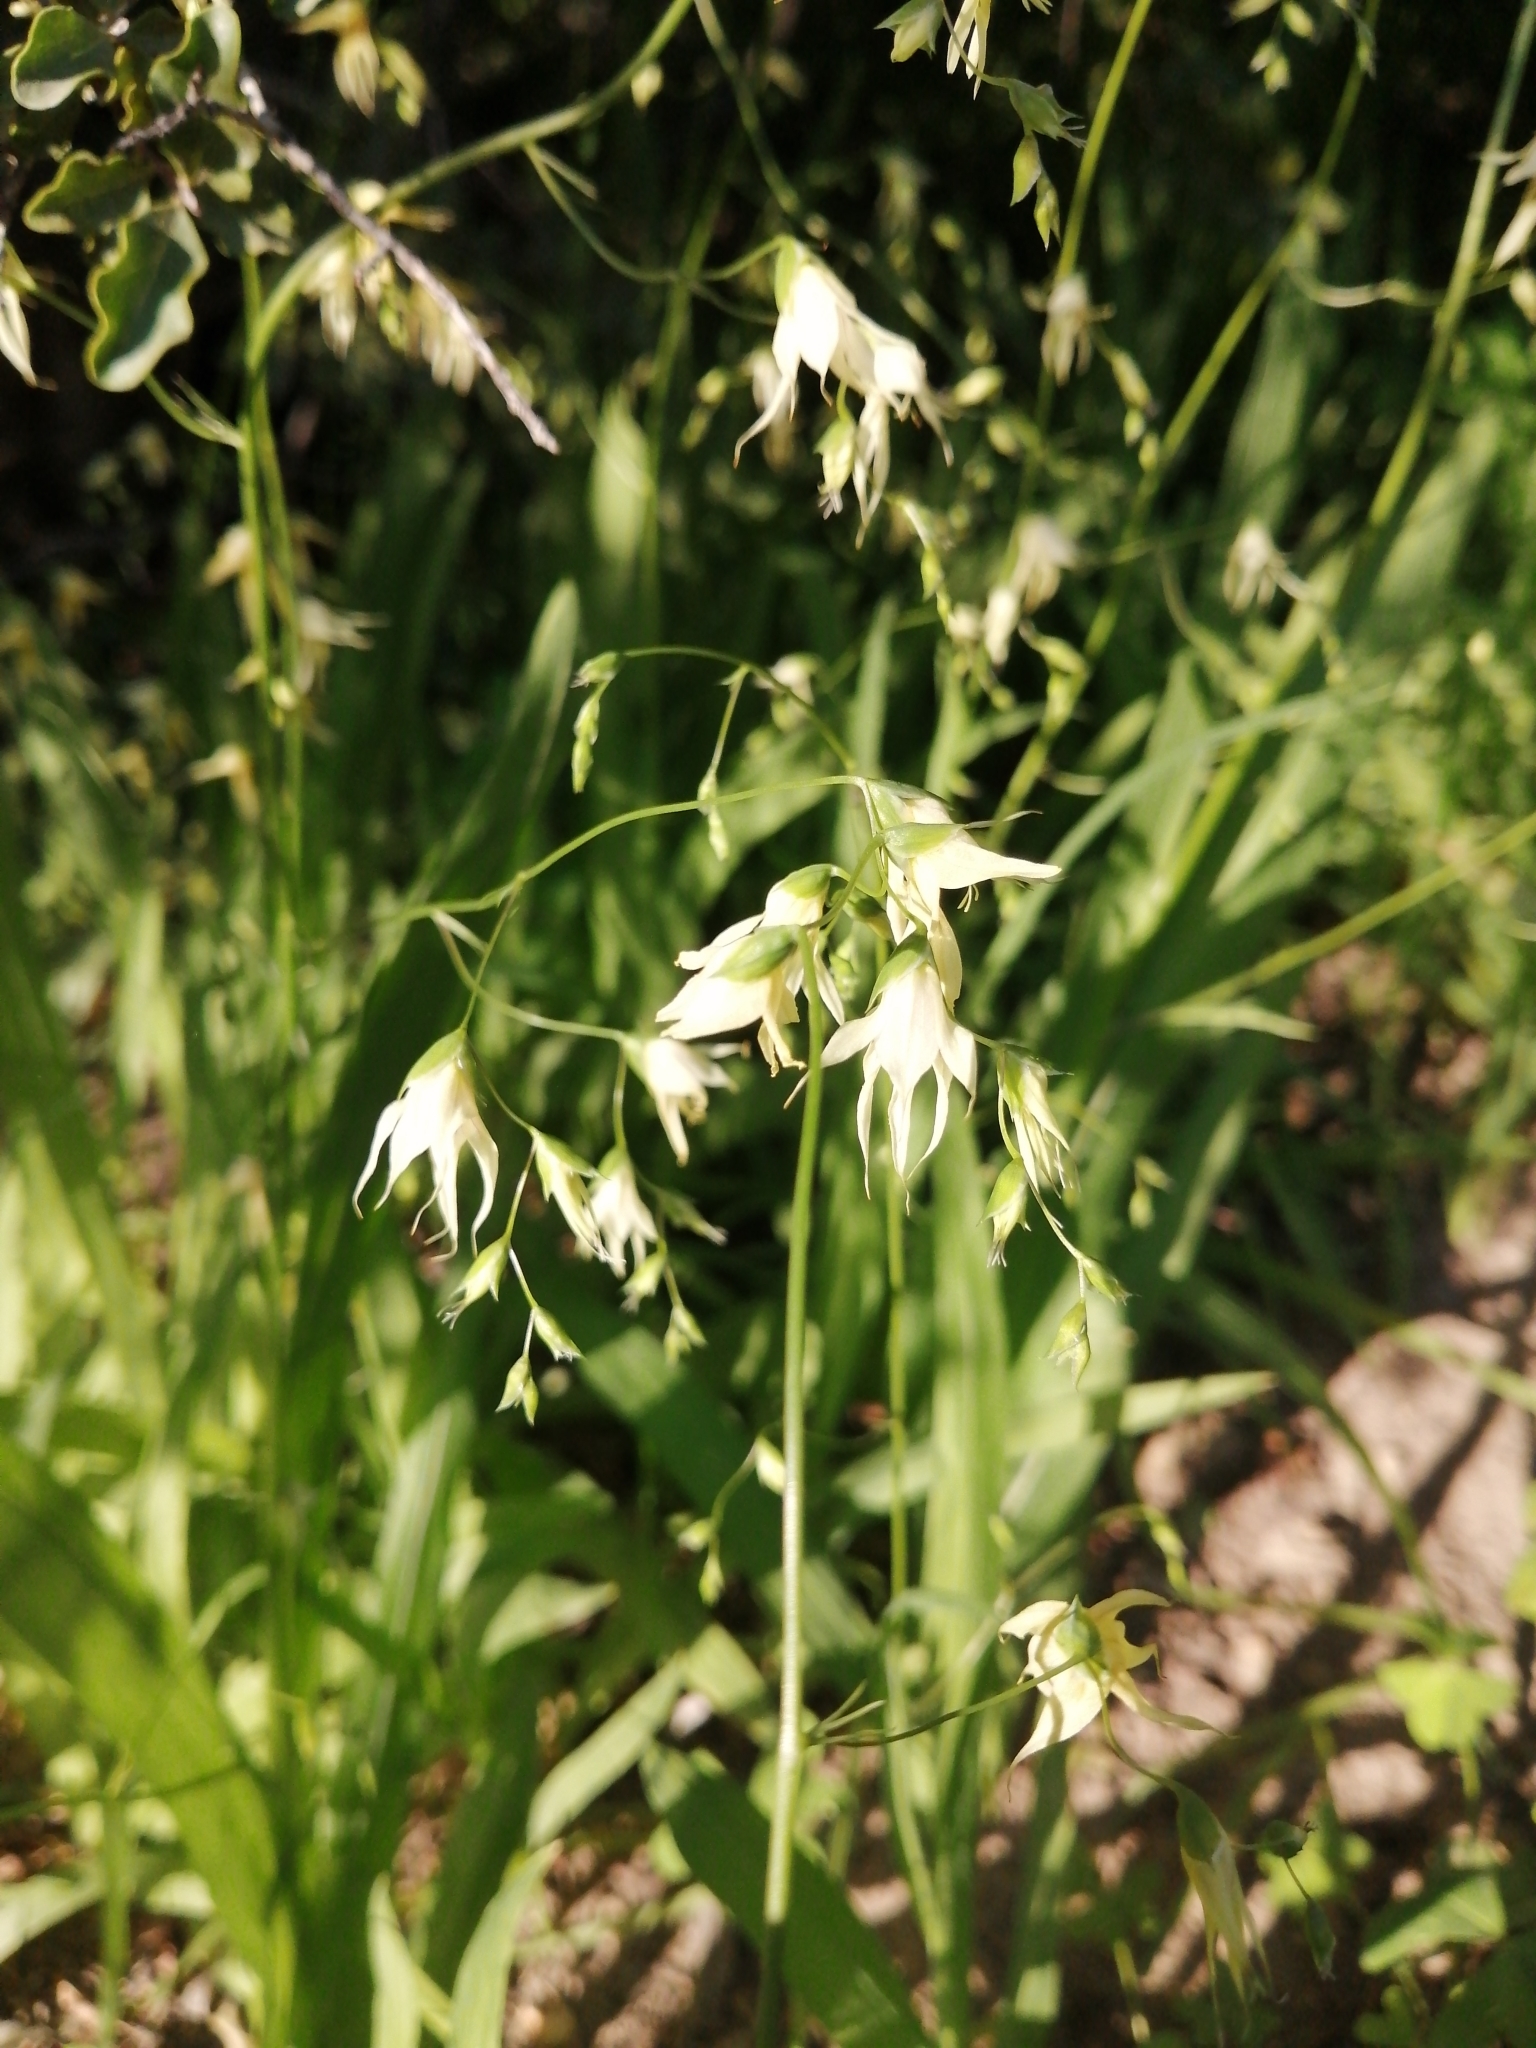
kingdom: Plantae
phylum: Tracheophyta
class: Liliopsida
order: Asparagales
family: Iridaceae
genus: Melasphaerula
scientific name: Melasphaerula graminea
